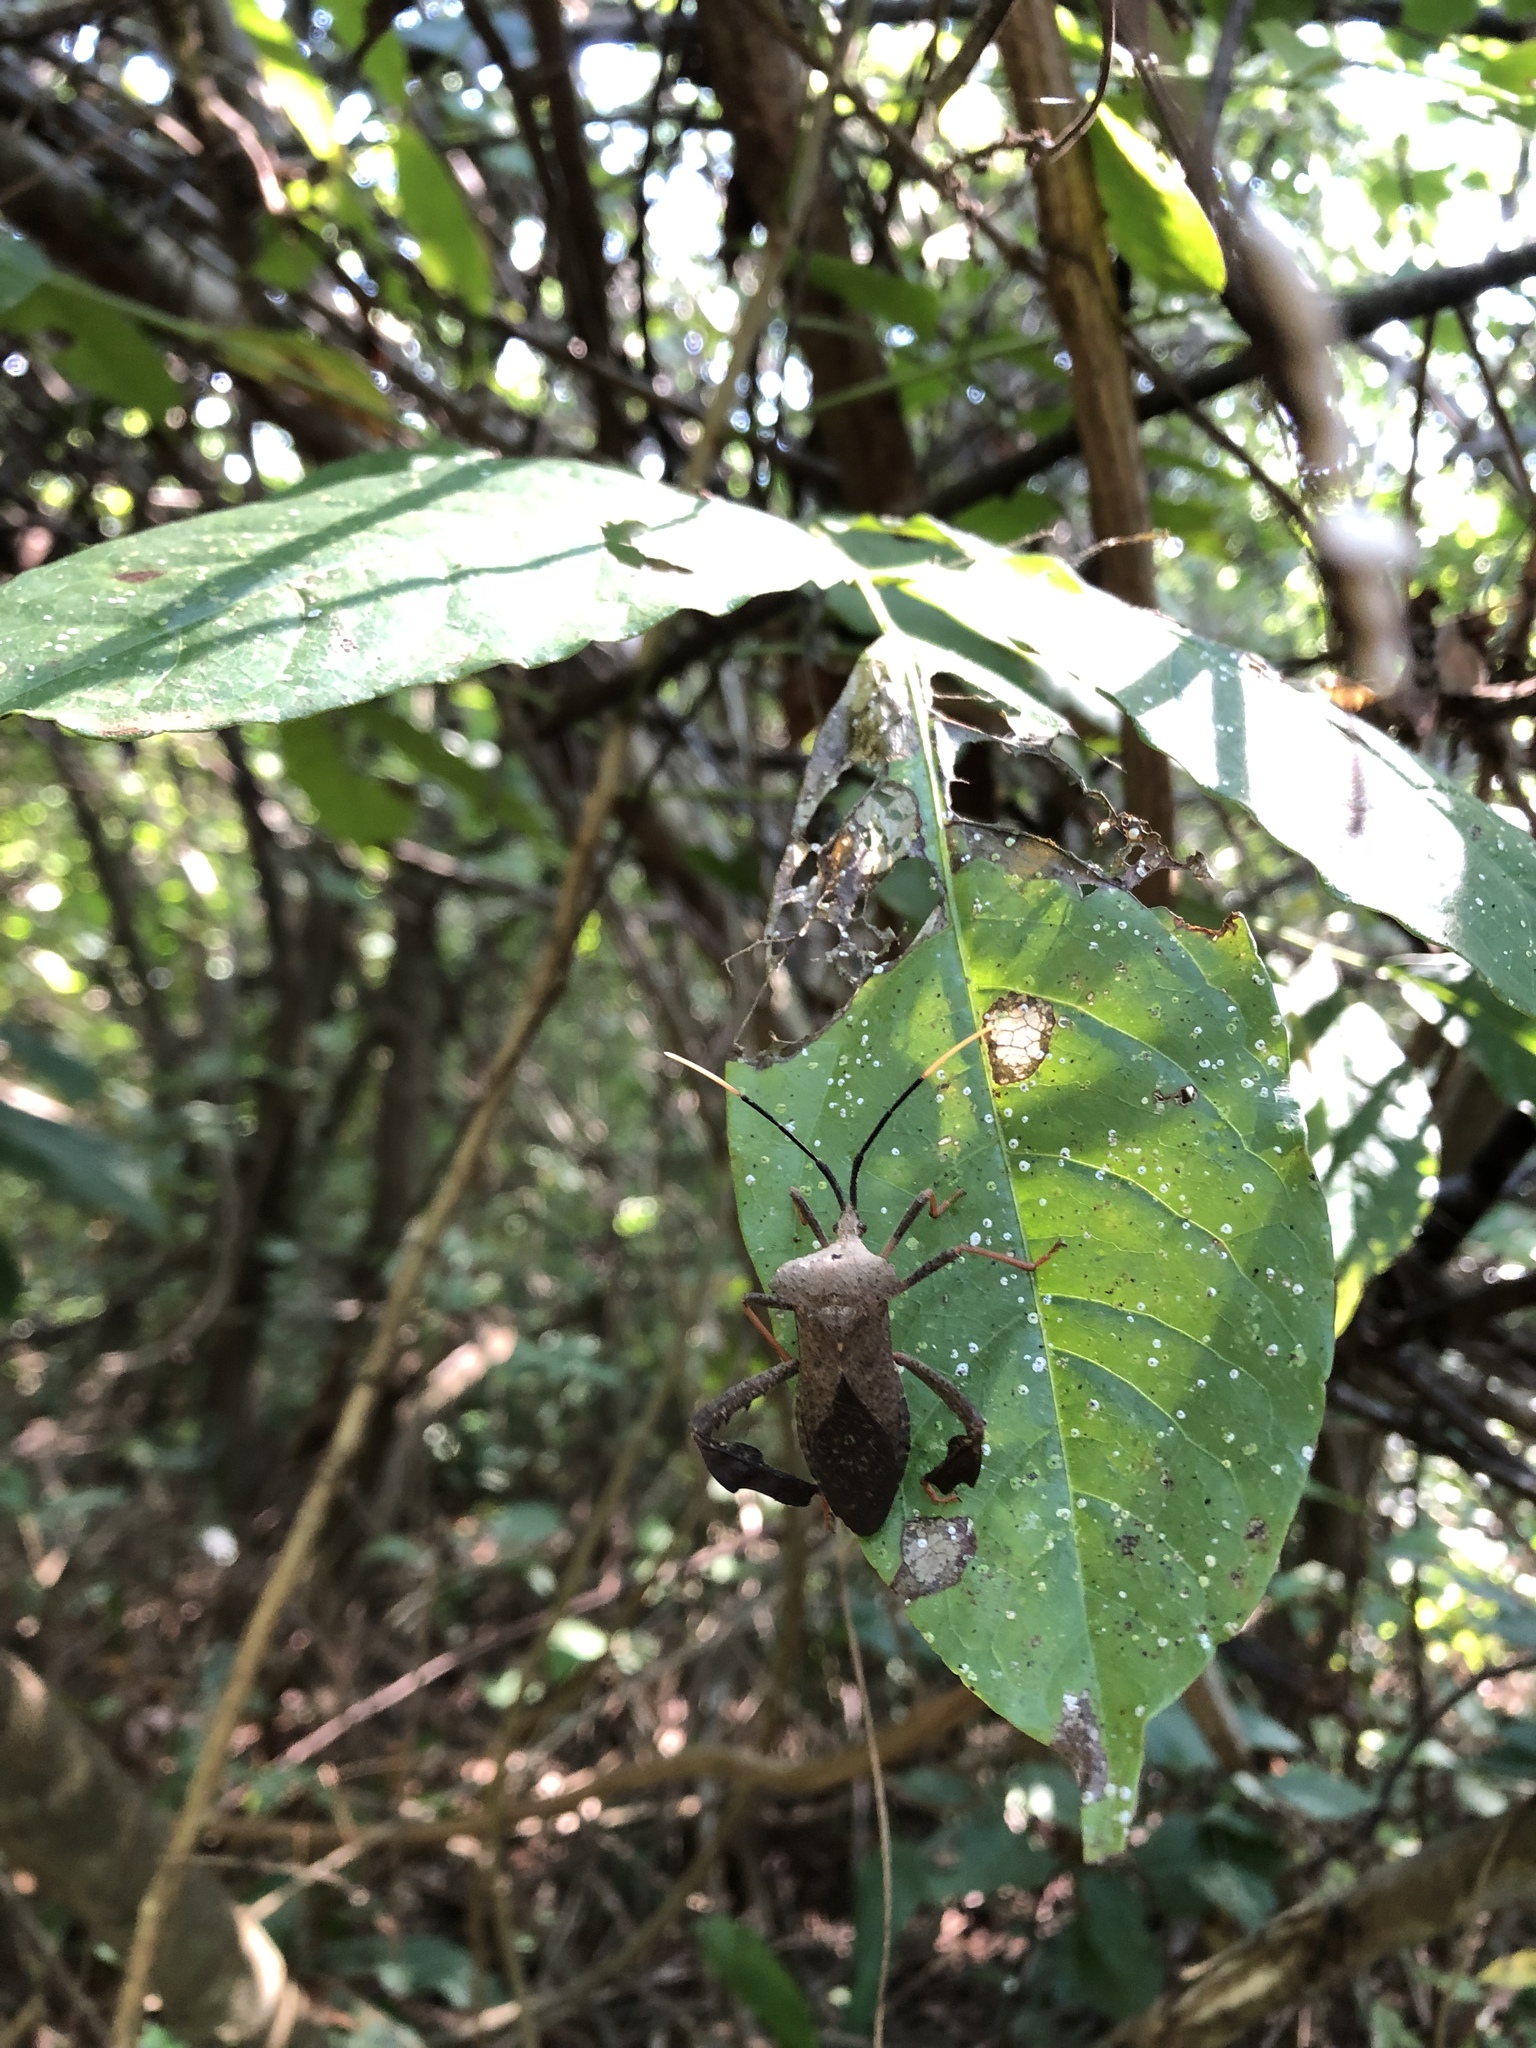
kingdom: Animalia
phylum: Arthropoda
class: Insecta
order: Hemiptera
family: Coreidae
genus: Acanthocephala
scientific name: Acanthocephala alata
